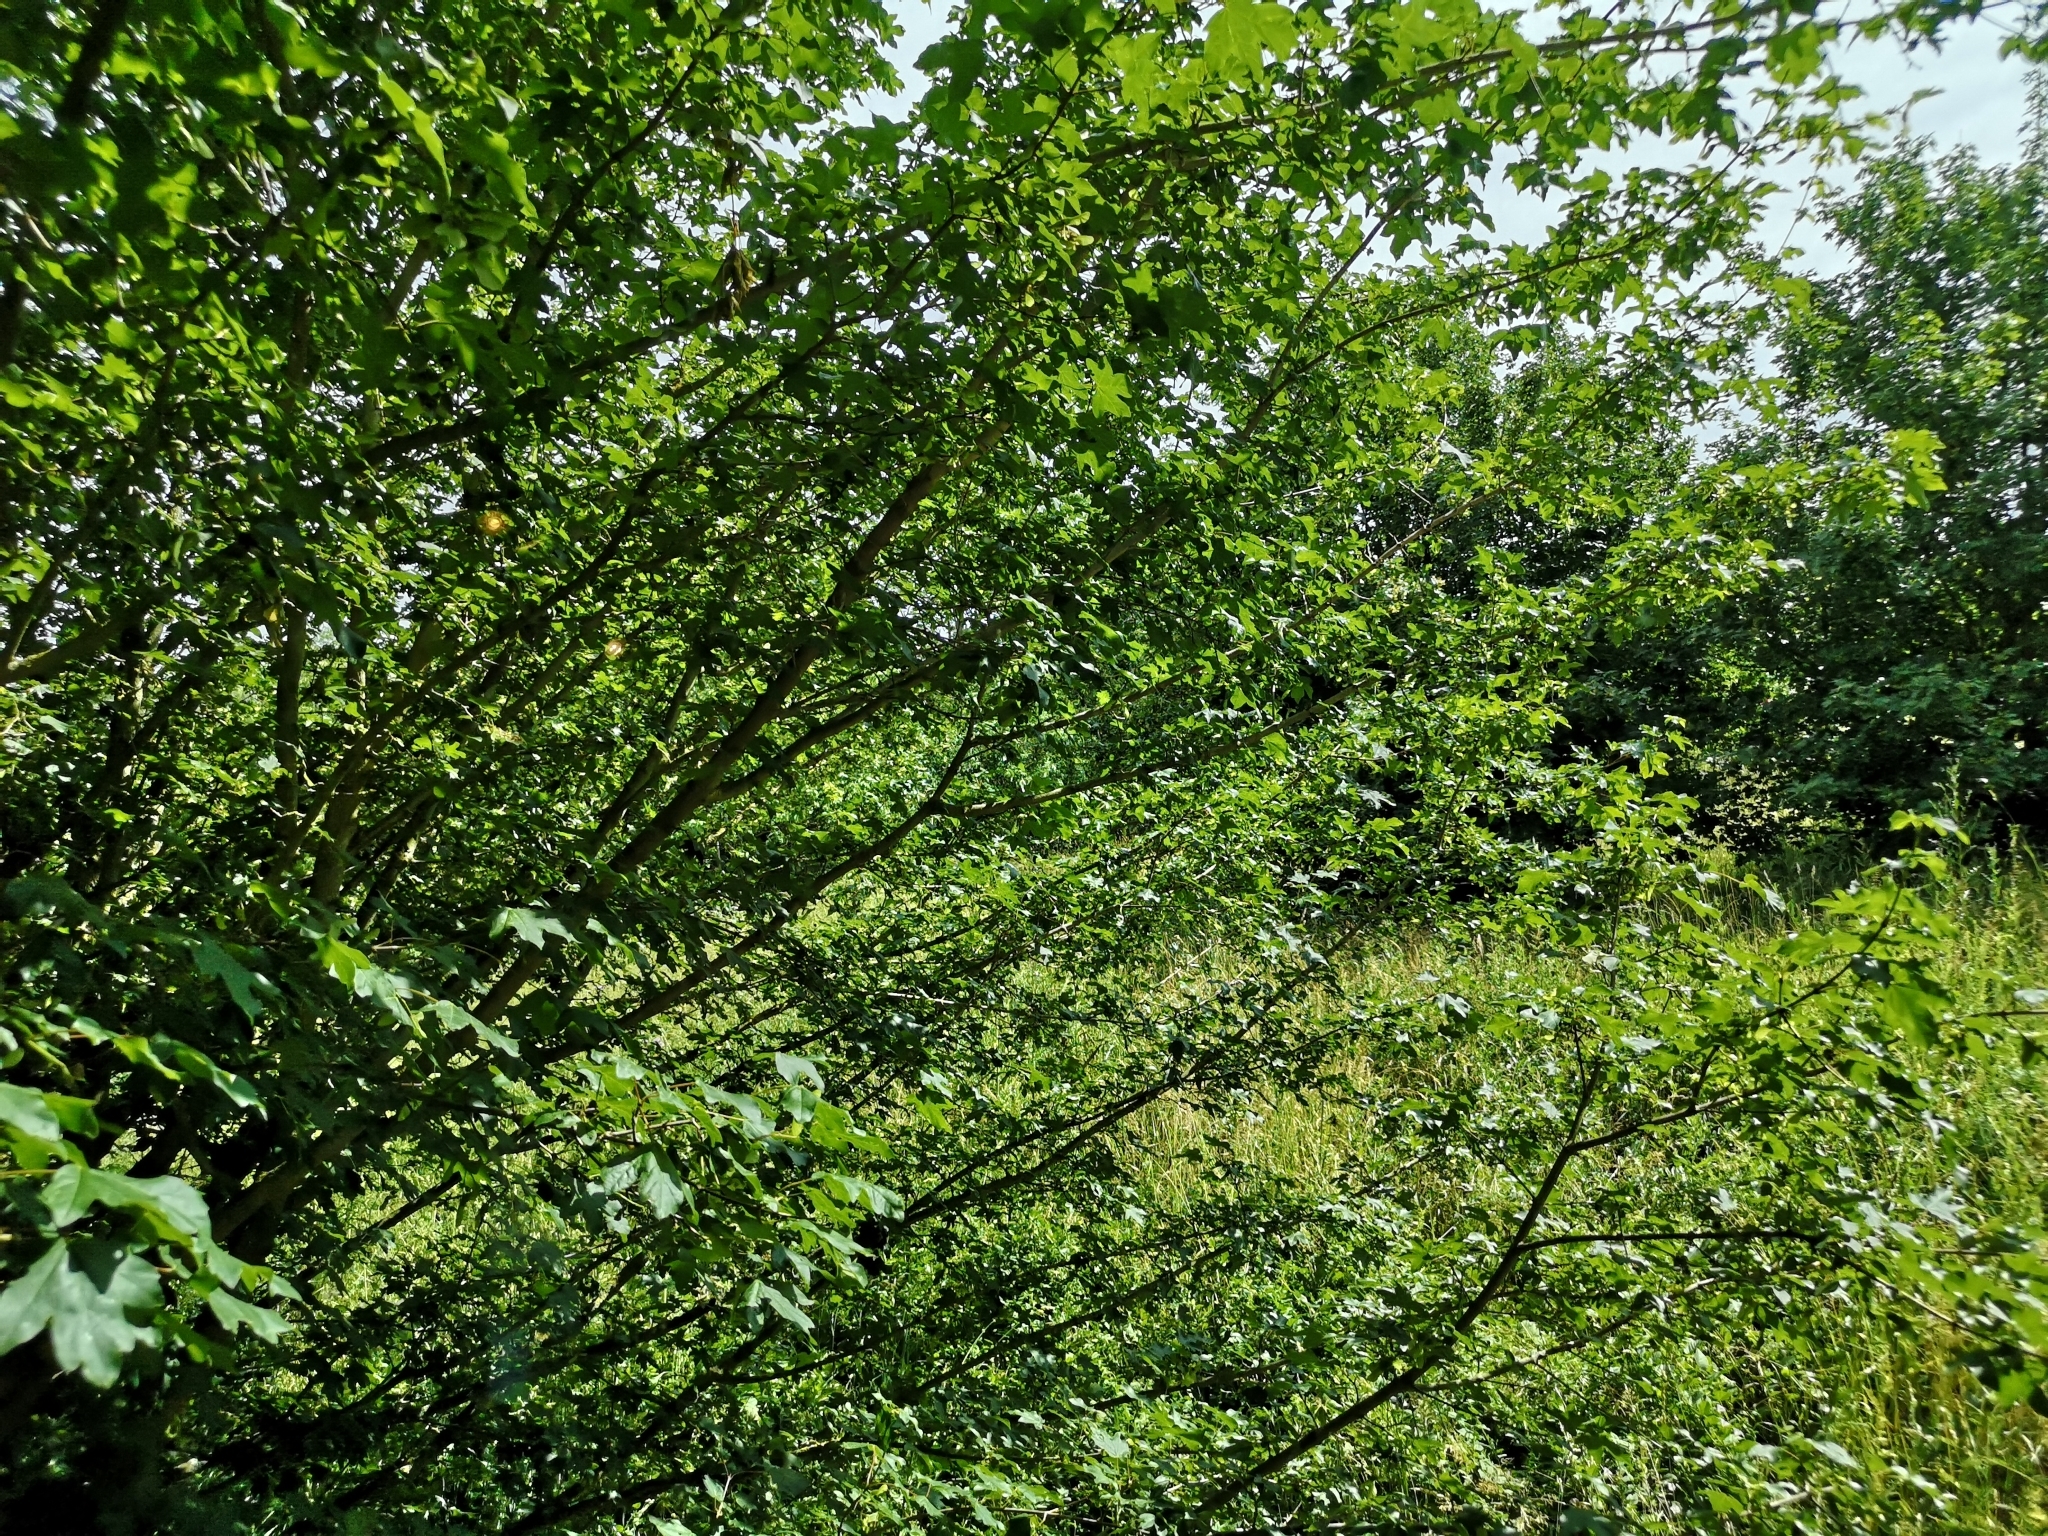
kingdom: Plantae
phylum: Tracheophyta
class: Magnoliopsida
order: Sapindales
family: Sapindaceae
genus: Acer
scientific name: Acer campestre
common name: Field maple
